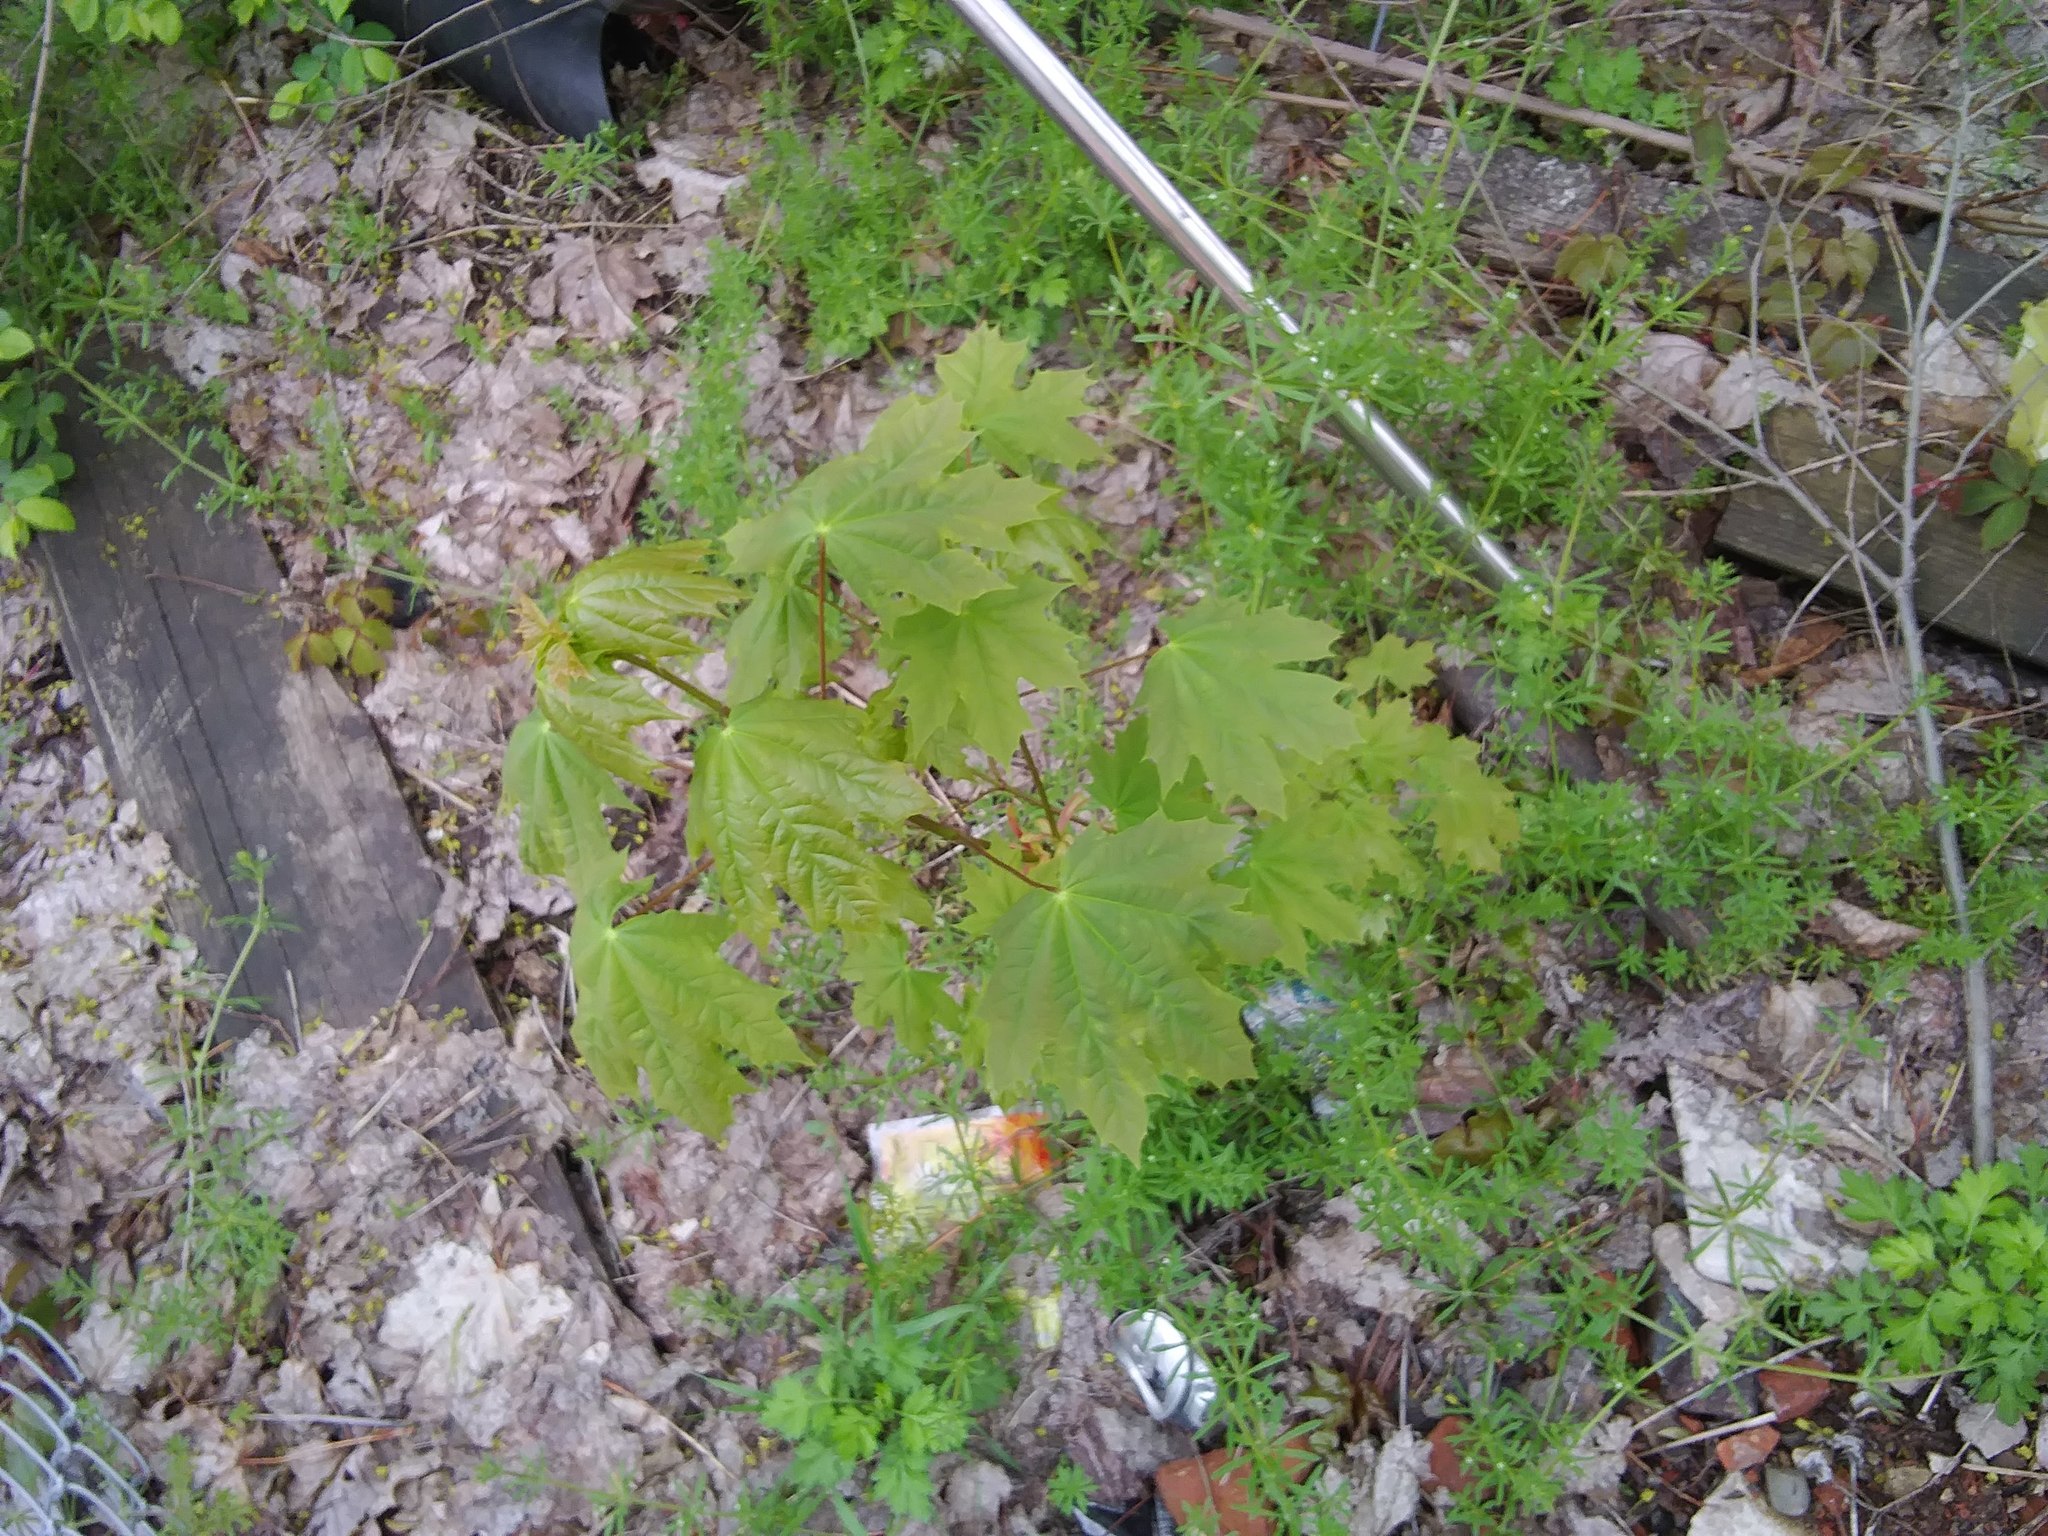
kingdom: Plantae
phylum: Tracheophyta
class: Magnoliopsida
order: Sapindales
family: Sapindaceae
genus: Acer
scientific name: Acer platanoides
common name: Norway maple
